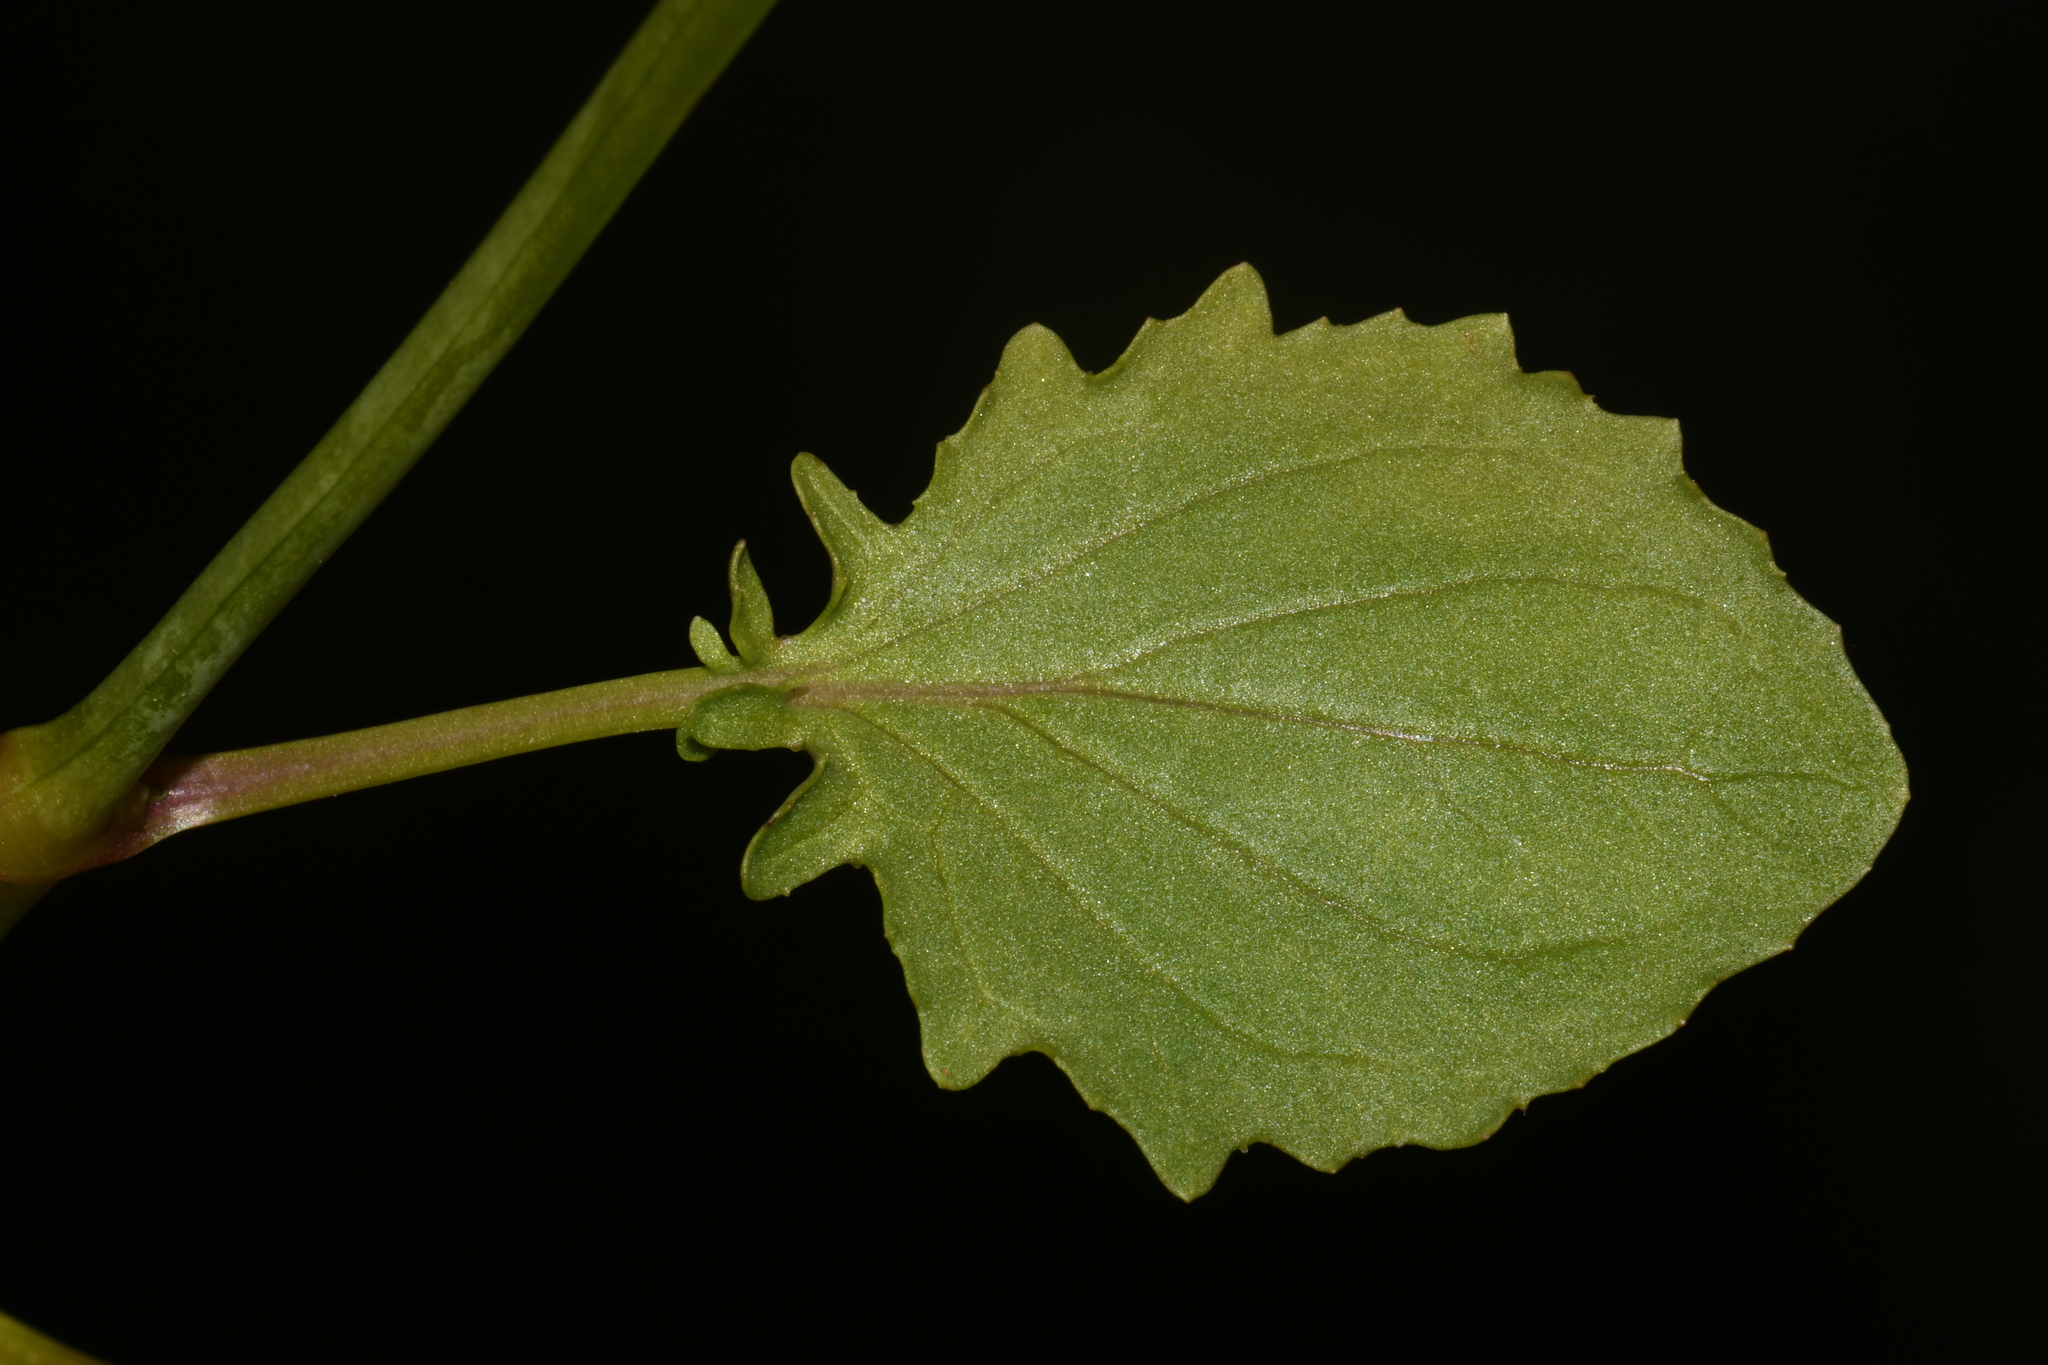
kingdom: Plantae
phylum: Tracheophyta
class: Magnoliopsida
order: Lamiales
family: Phrymaceae
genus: Erythranthe
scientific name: Erythranthe guttata
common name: Monkeyflower
